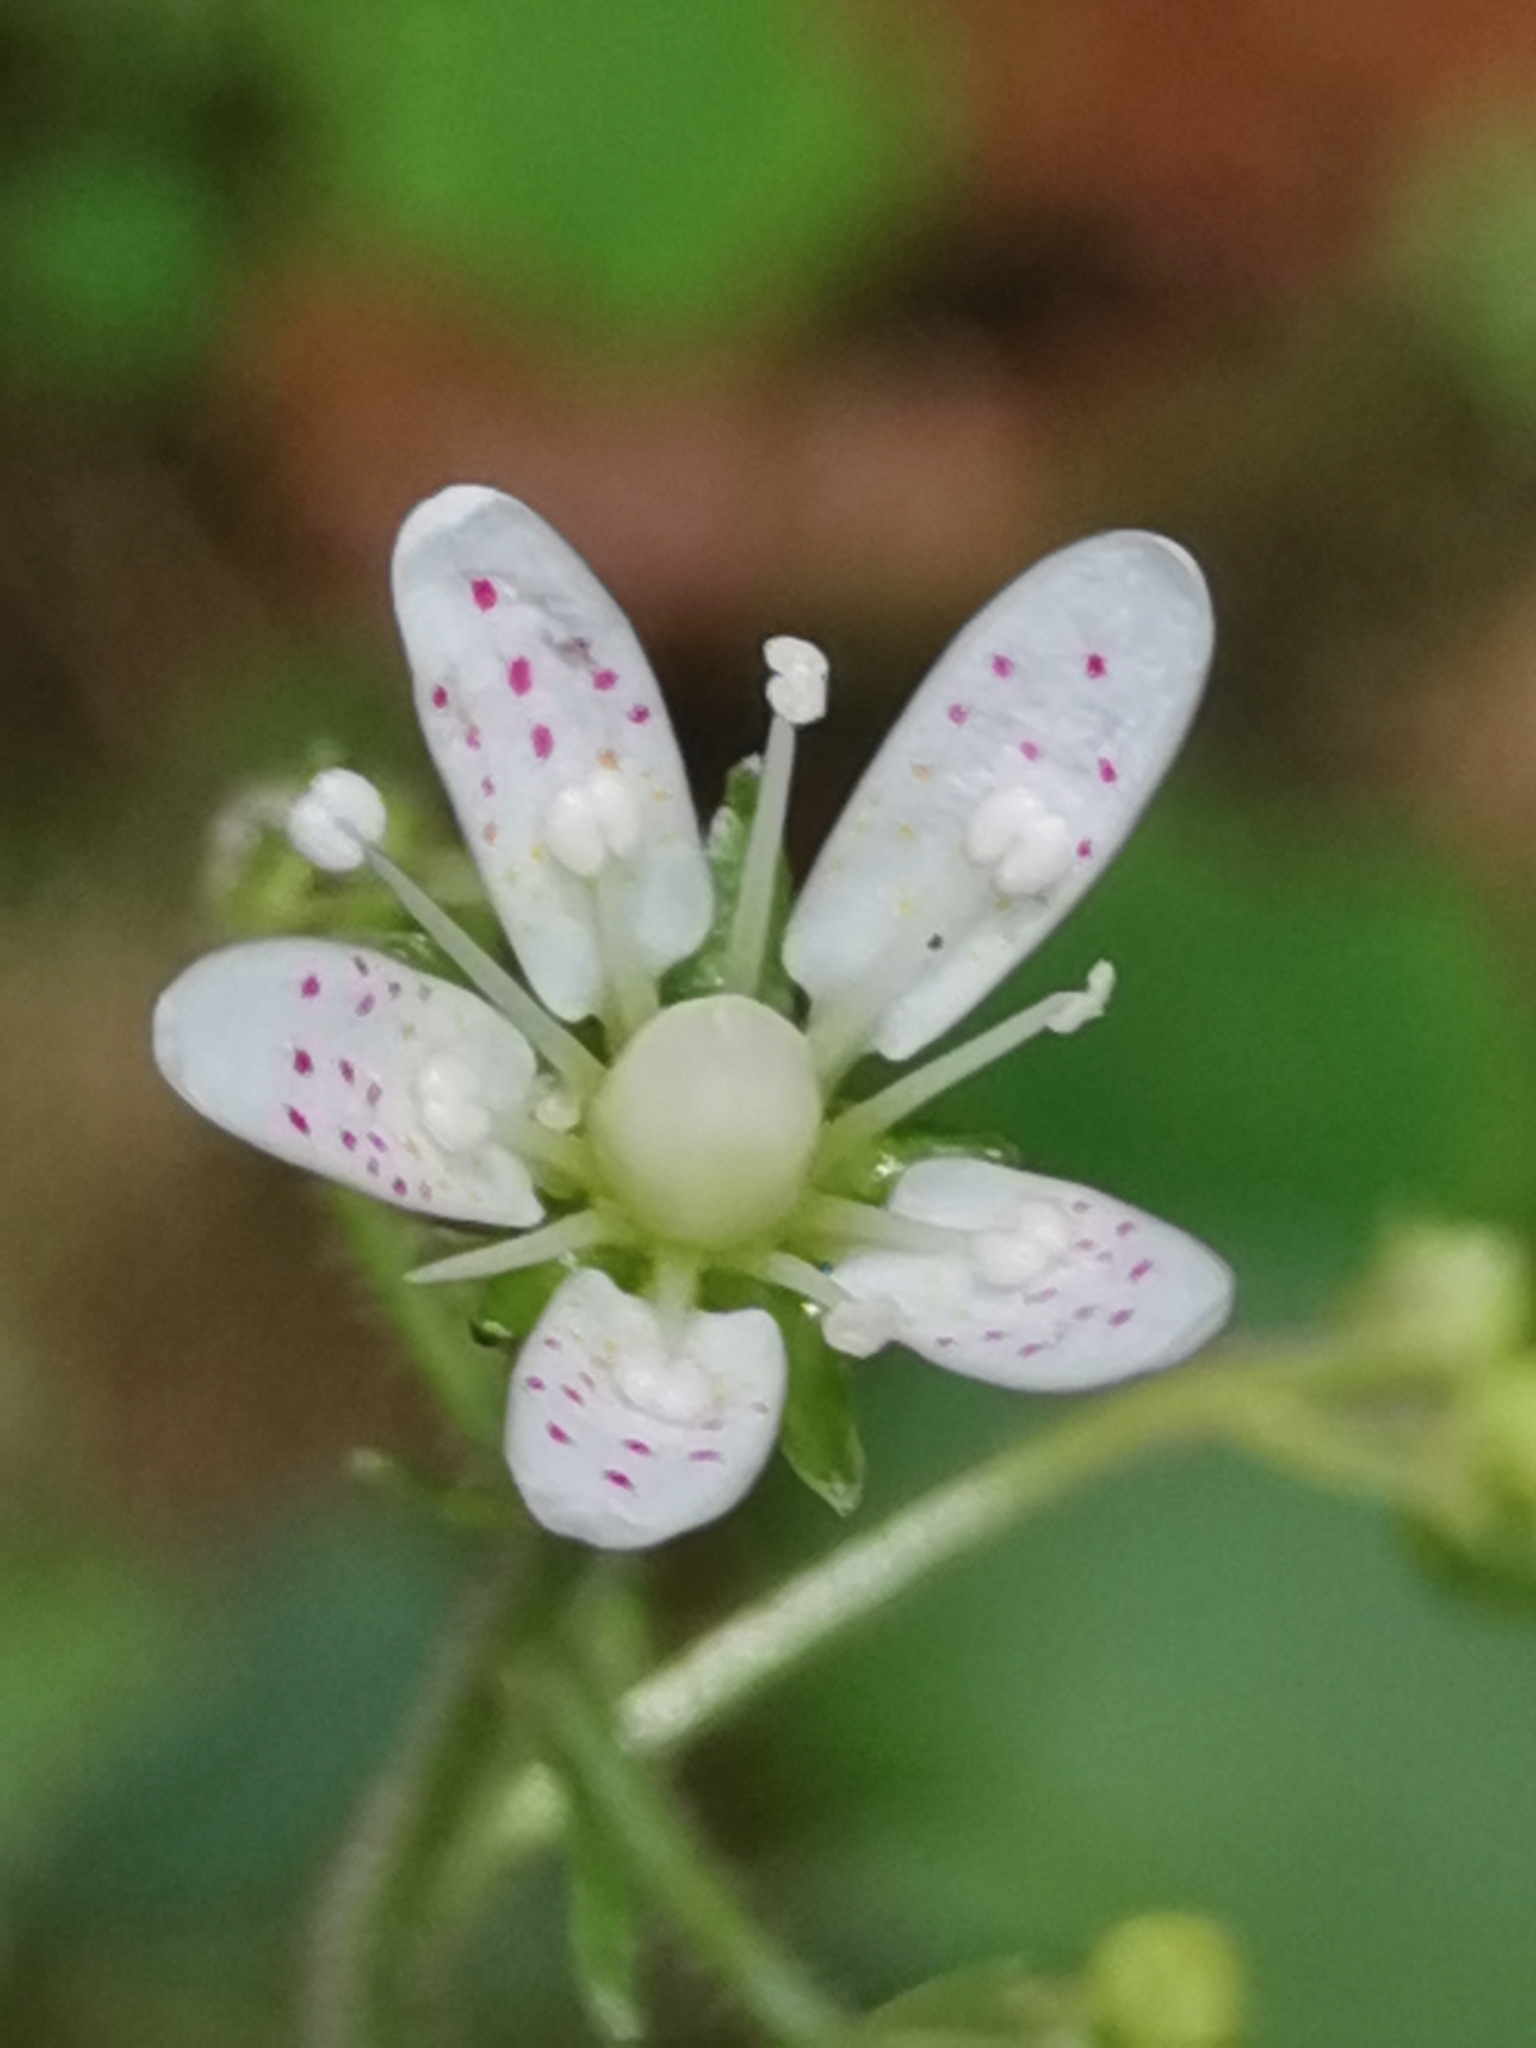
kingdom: Plantae
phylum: Tracheophyta
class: Magnoliopsida
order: Saxifragales
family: Saxifragaceae
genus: Saxifraga
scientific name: Saxifraga rotundifolia
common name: Round-leaved saxifrage
